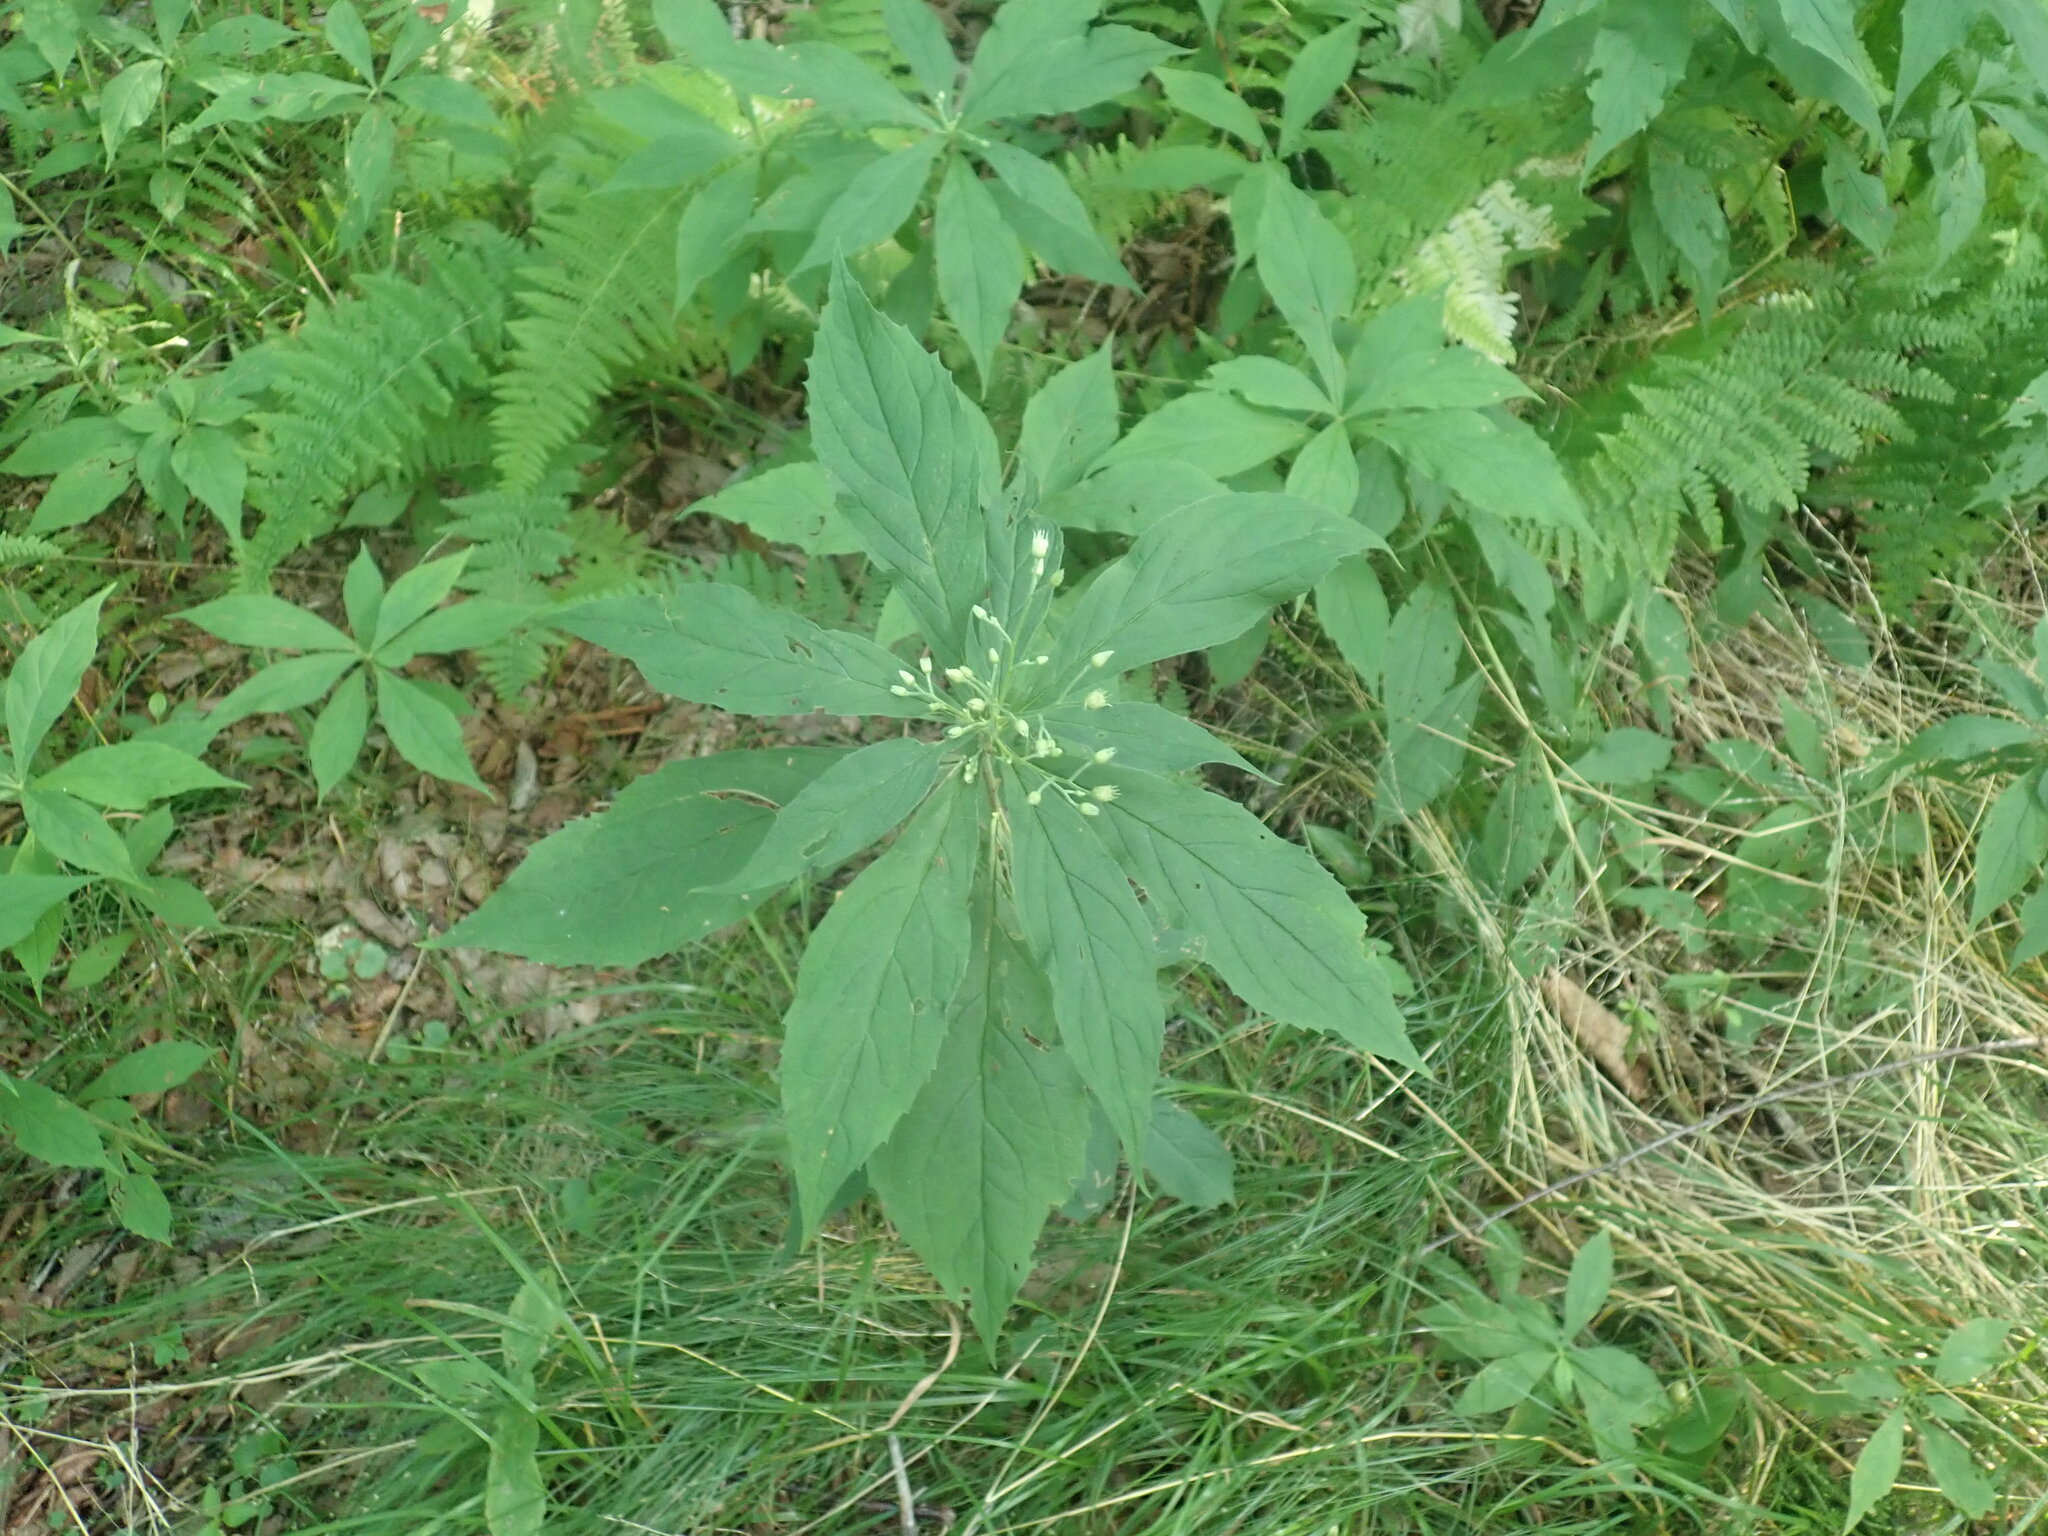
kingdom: Plantae
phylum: Tracheophyta
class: Magnoliopsida
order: Asterales
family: Asteraceae
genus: Oclemena
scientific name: Oclemena acuminata
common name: Mountain aster
